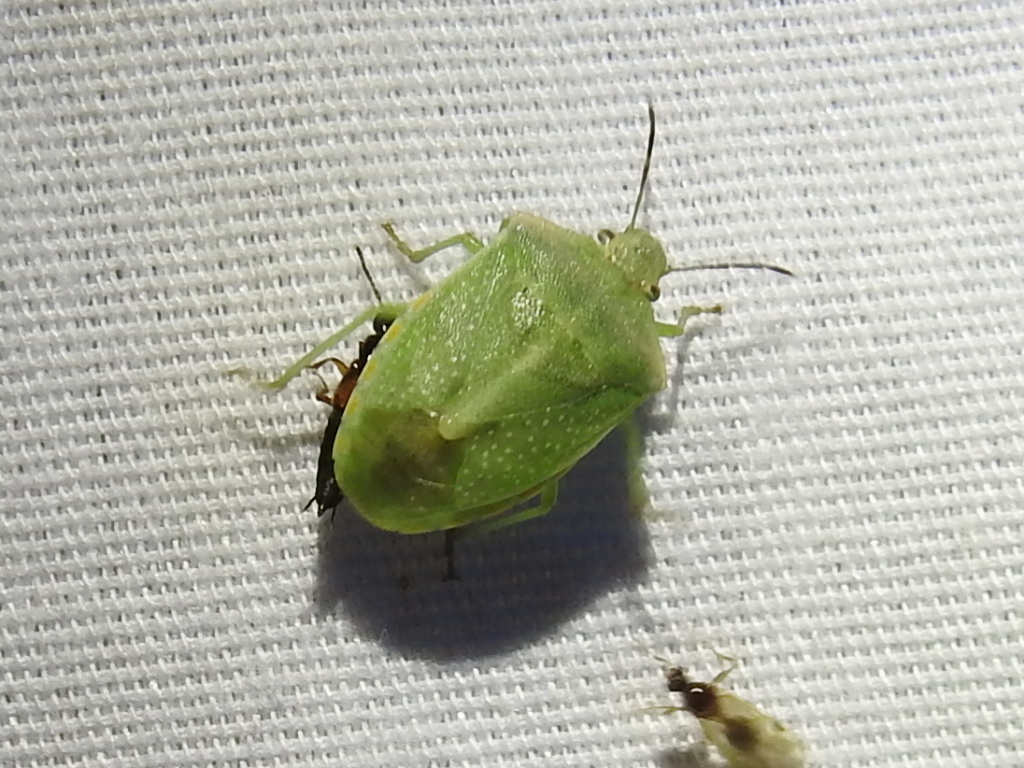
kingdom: Animalia
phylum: Arthropoda
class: Insecta
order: Hemiptera
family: Pentatomidae
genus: Thyanta
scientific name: Thyanta accerra
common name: Stink bug
